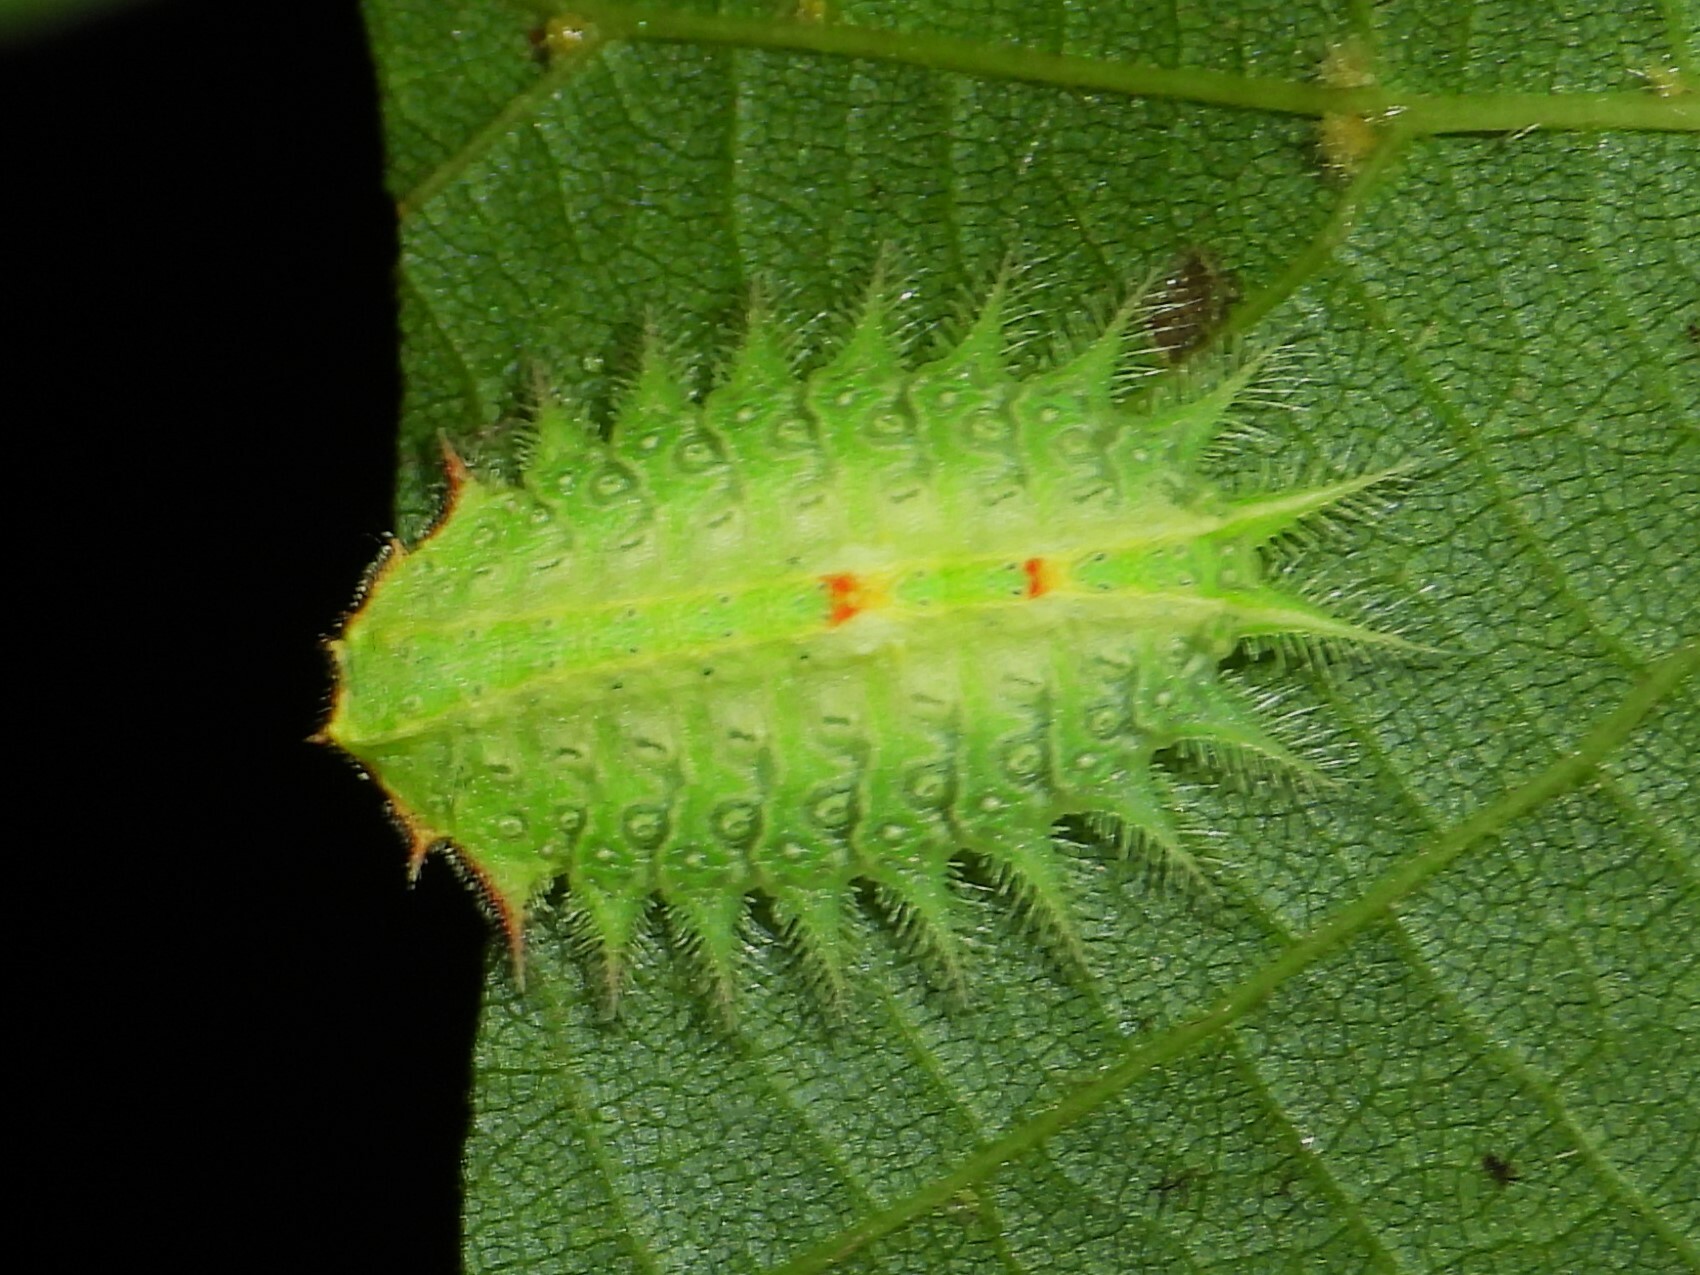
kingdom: Animalia
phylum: Arthropoda
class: Insecta
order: Lepidoptera
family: Limacodidae
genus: Isa
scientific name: Isa textula
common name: Crowned slug moth
